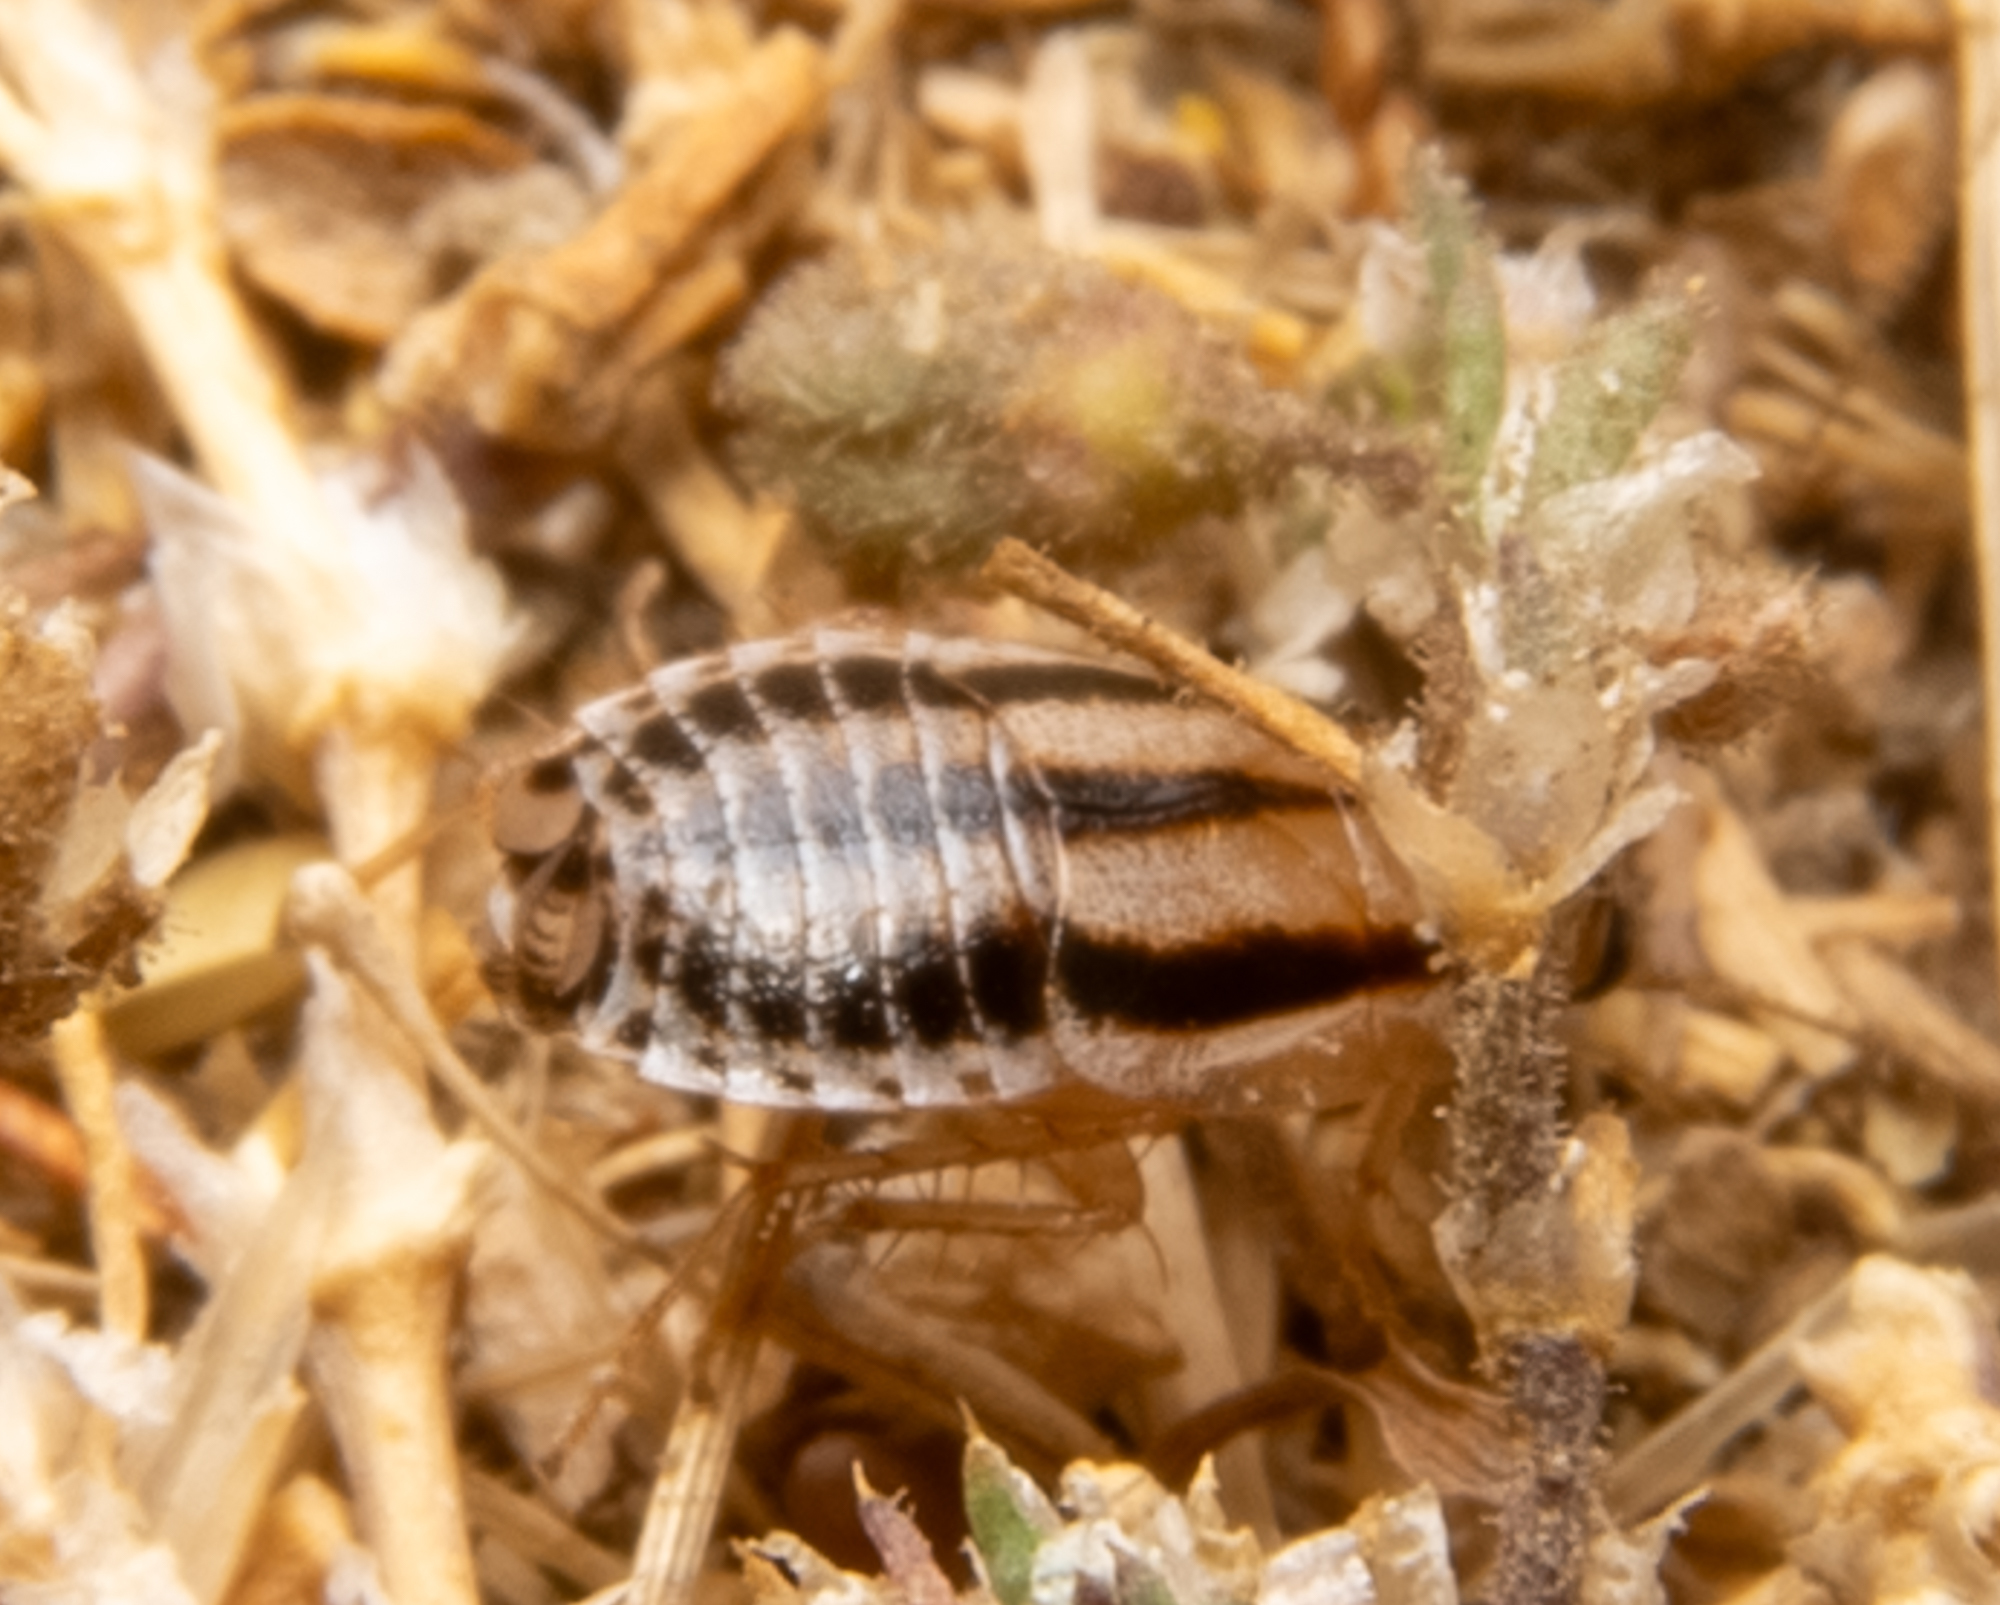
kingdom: Animalia
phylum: Arthropoda
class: Insecta
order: Blattodea
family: Ectobiidae
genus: Luridiblatta
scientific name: Luridiblatta trivittata
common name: Three-lined cockroach
